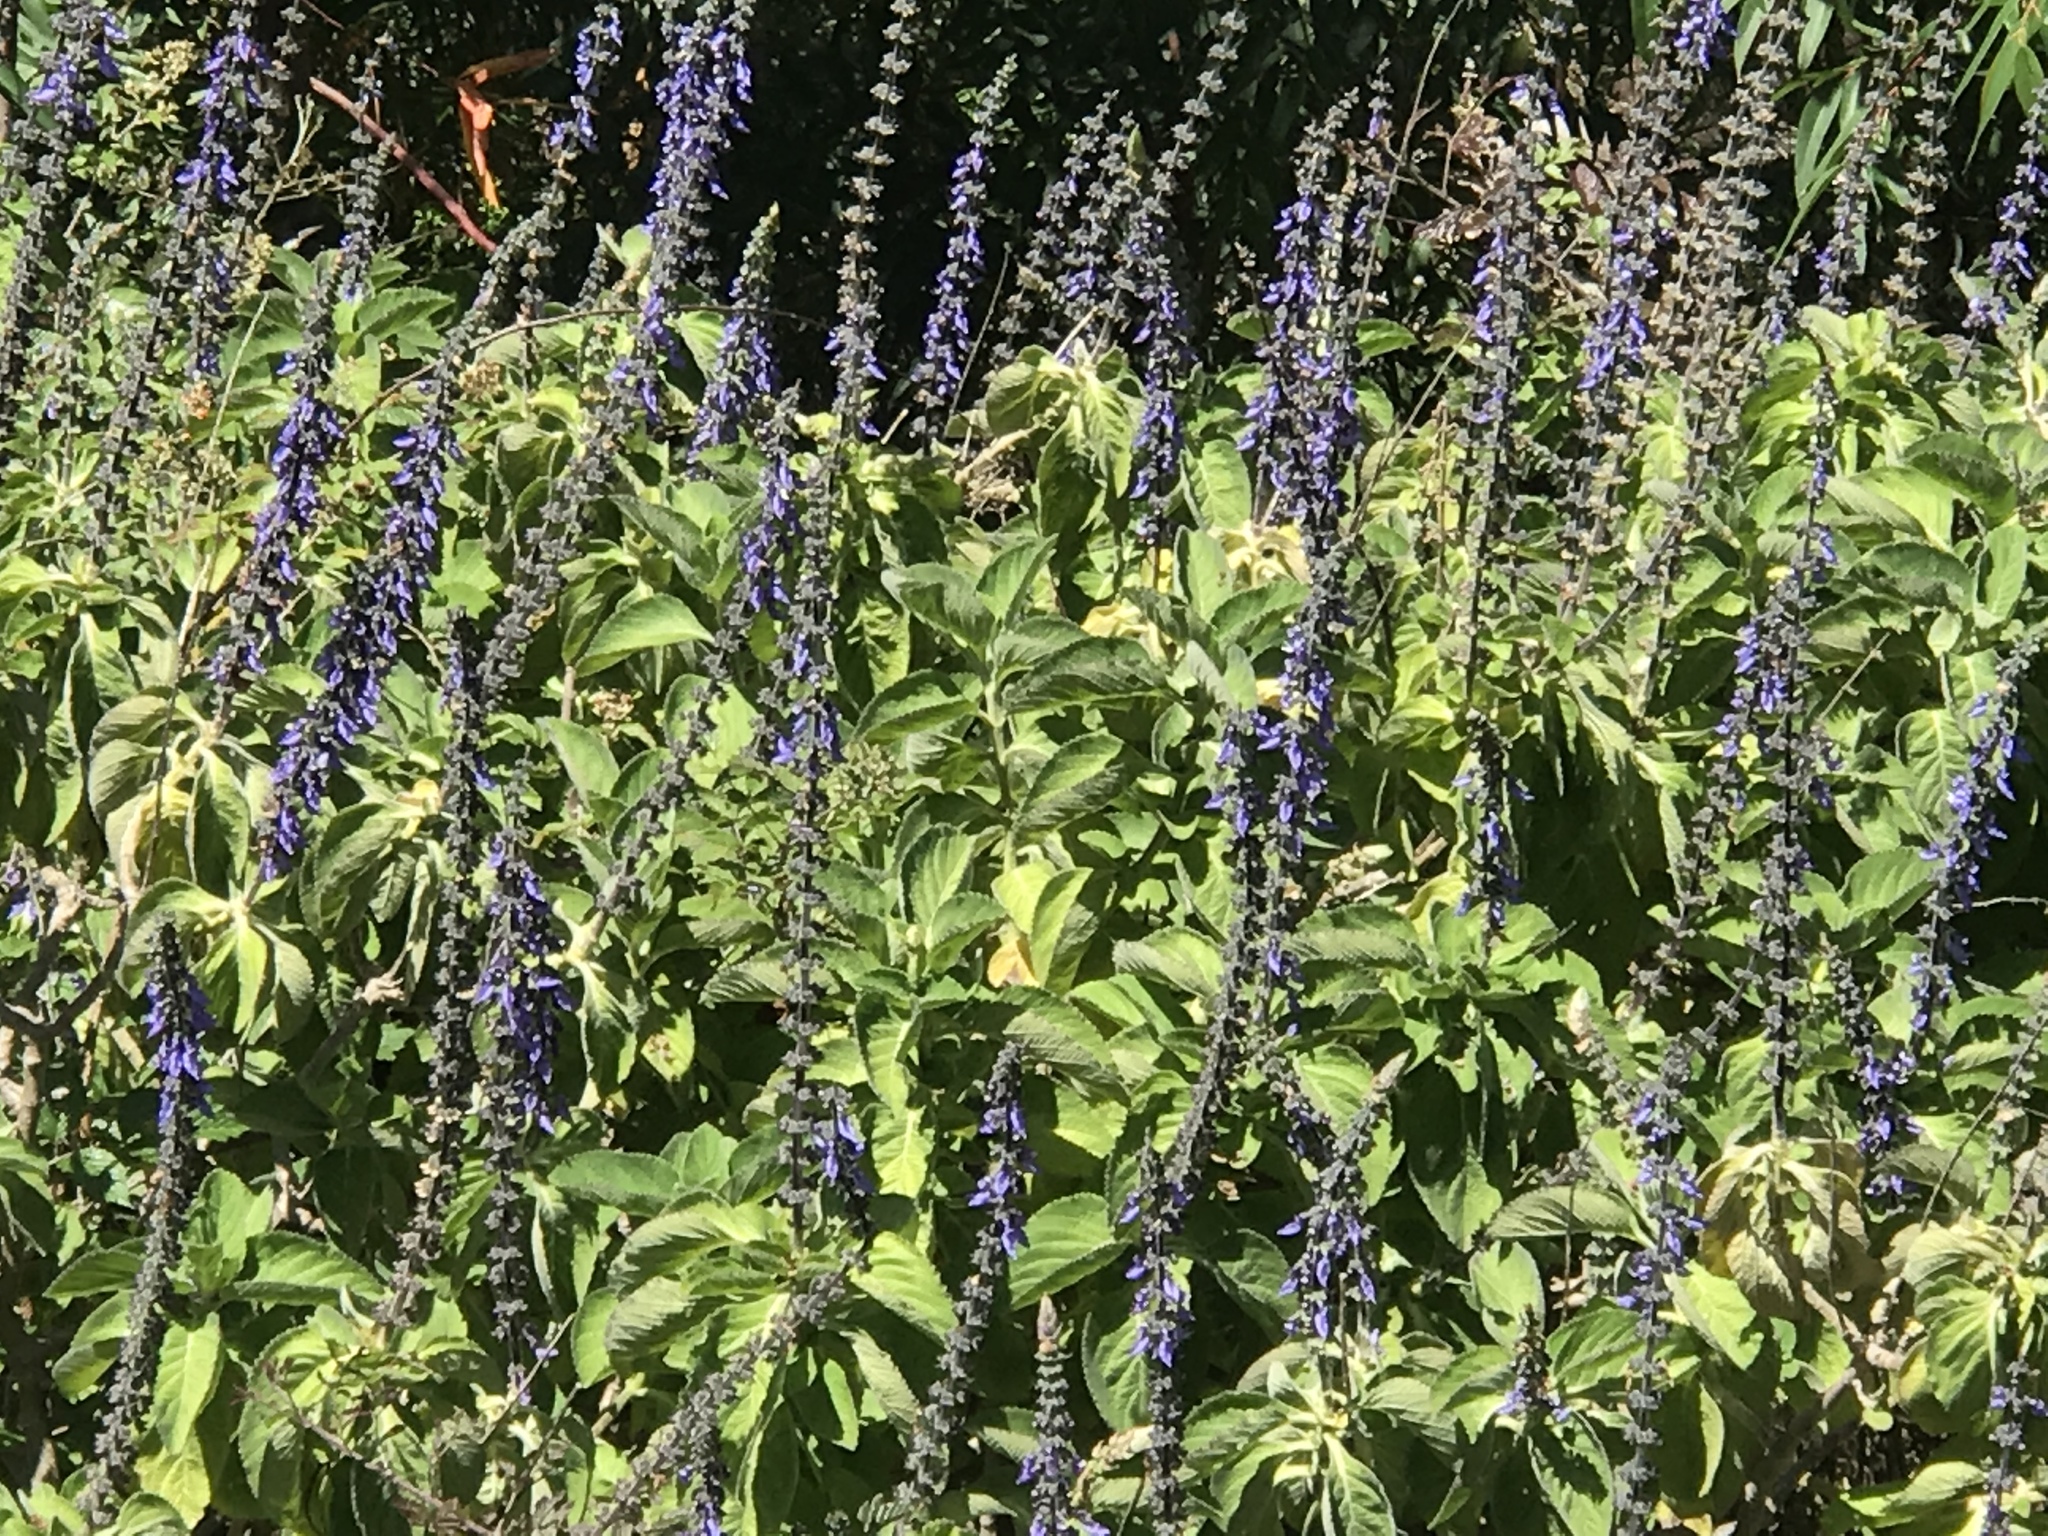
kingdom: Plantae
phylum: Tracheophyta
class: Magnoliopsida
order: Lamiales
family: Lamiaceae
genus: Coleus
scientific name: Coleus barbatus
